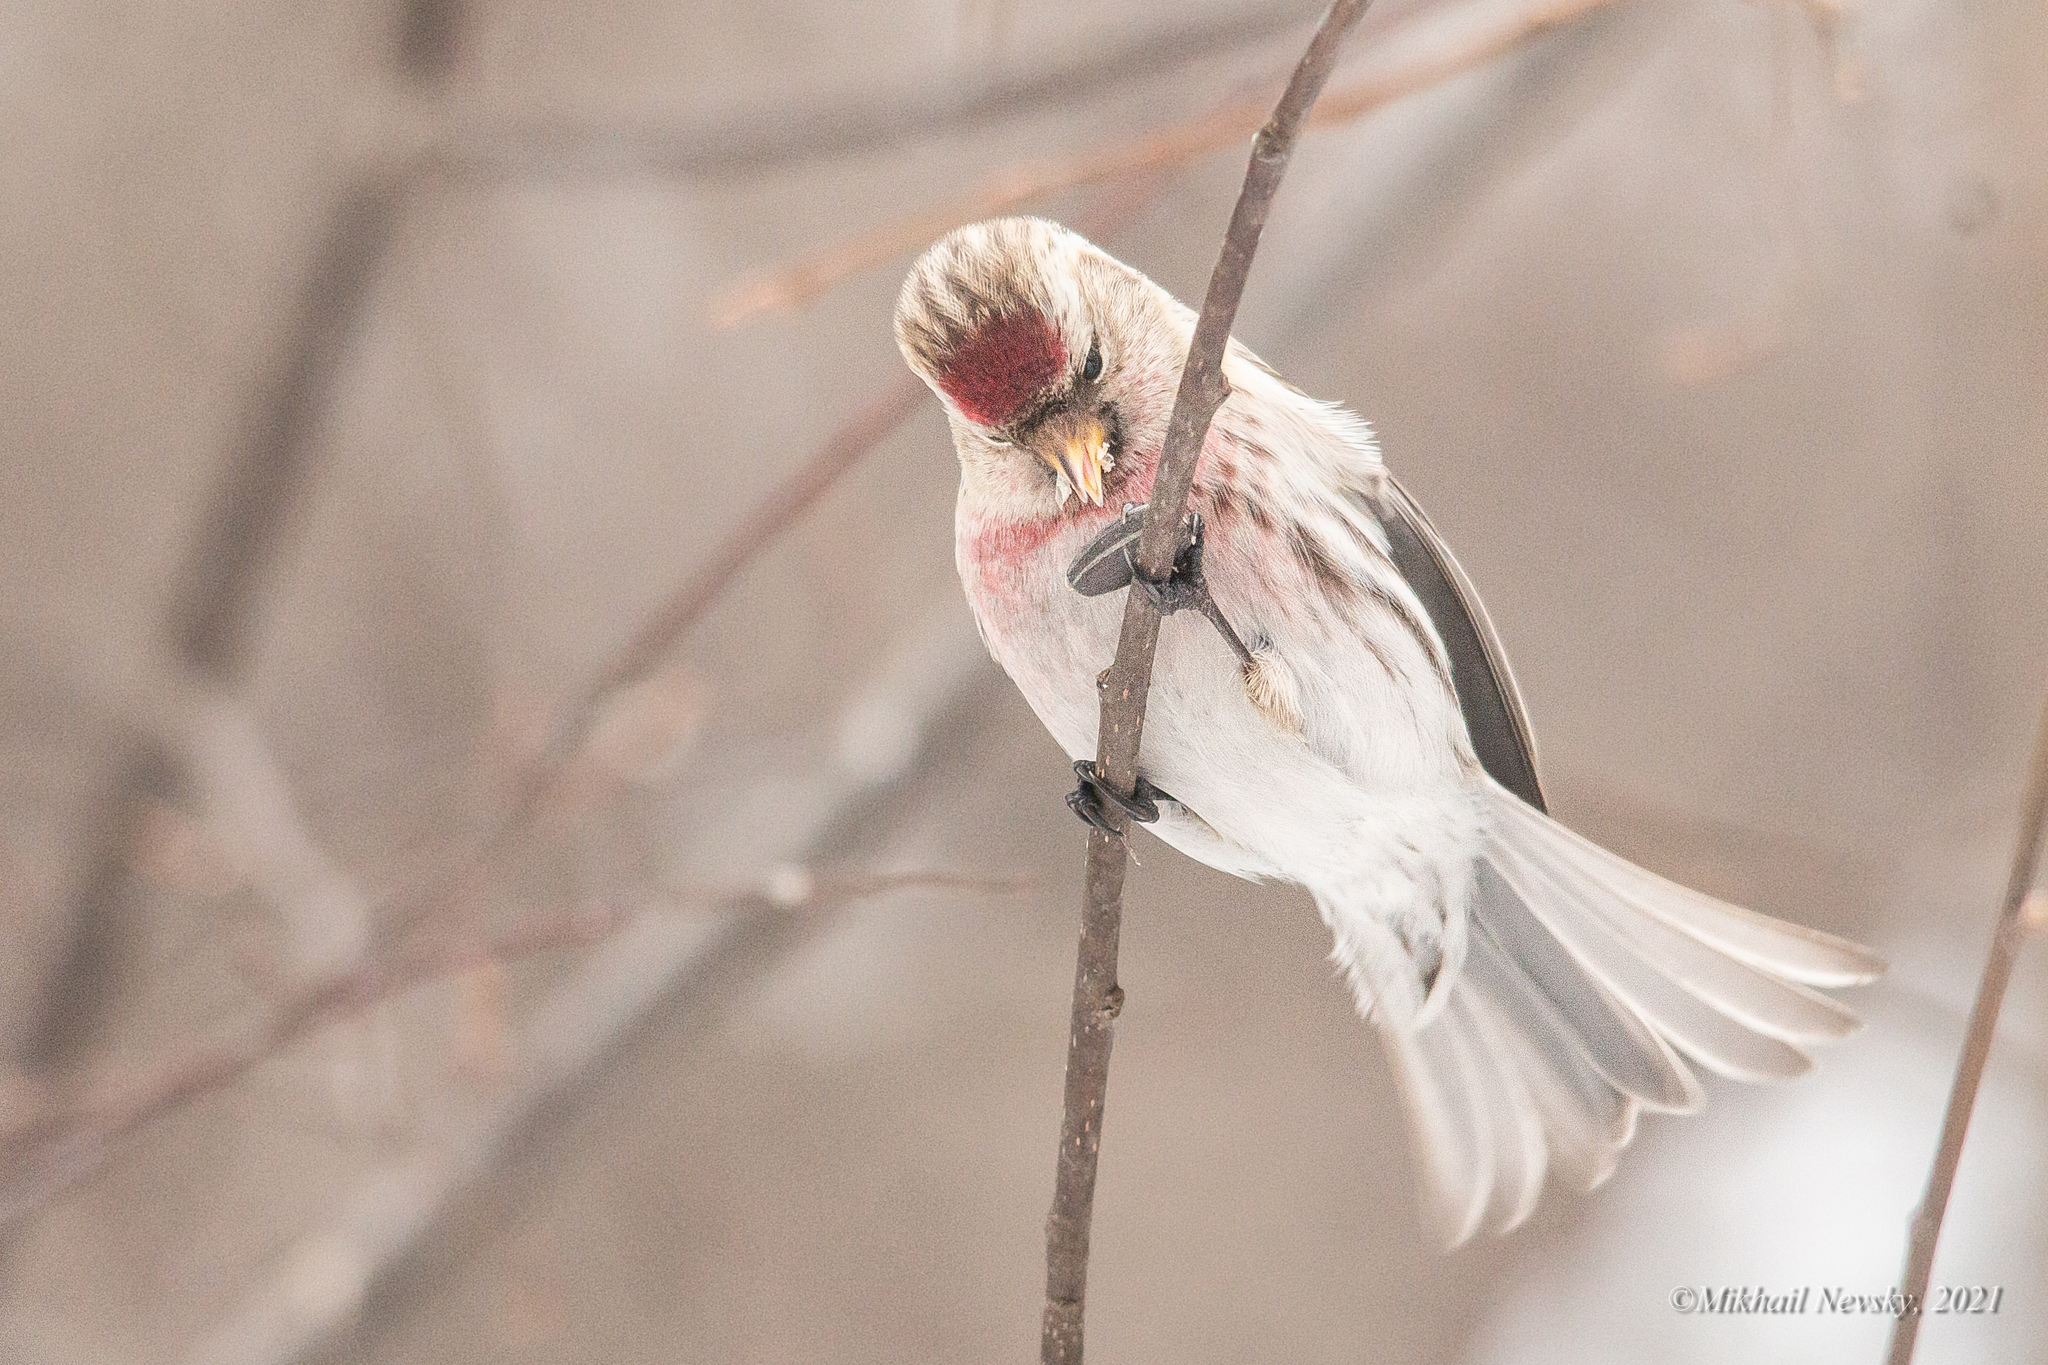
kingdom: Animalia
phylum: Chordata
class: Aves
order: Passeriformes
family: Fringillidae
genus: Acanthis
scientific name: Acanthis flammea
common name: Common redpoll
